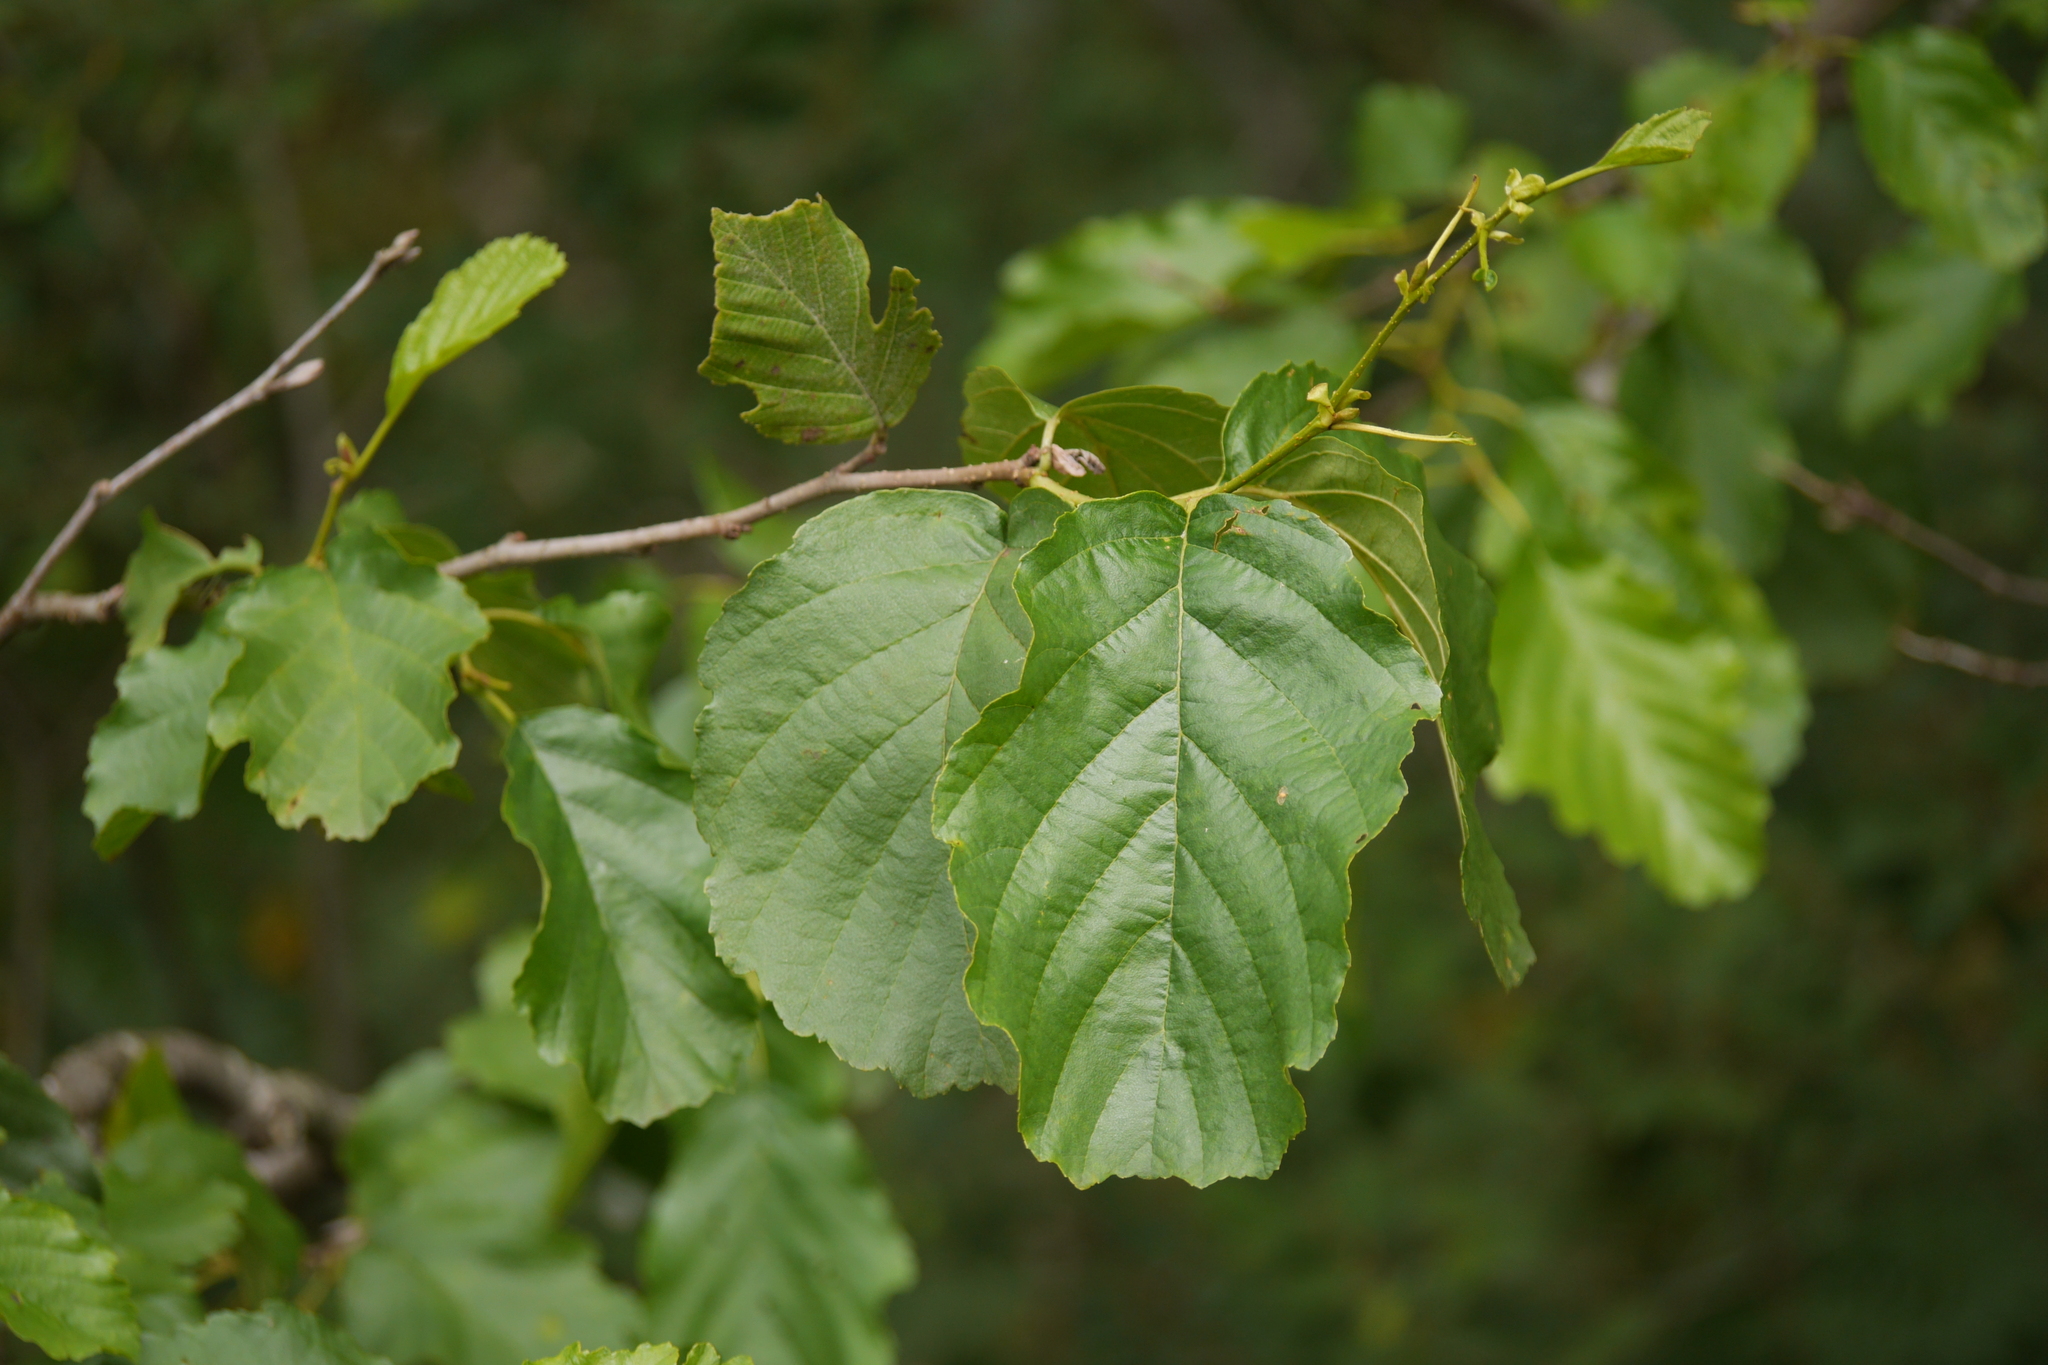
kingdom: Plantae
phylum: Tracheophyta
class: Magnoliopsida
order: Fagales
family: Betulaceae
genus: Alnus
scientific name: Alnus glutinosa
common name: Black alder
